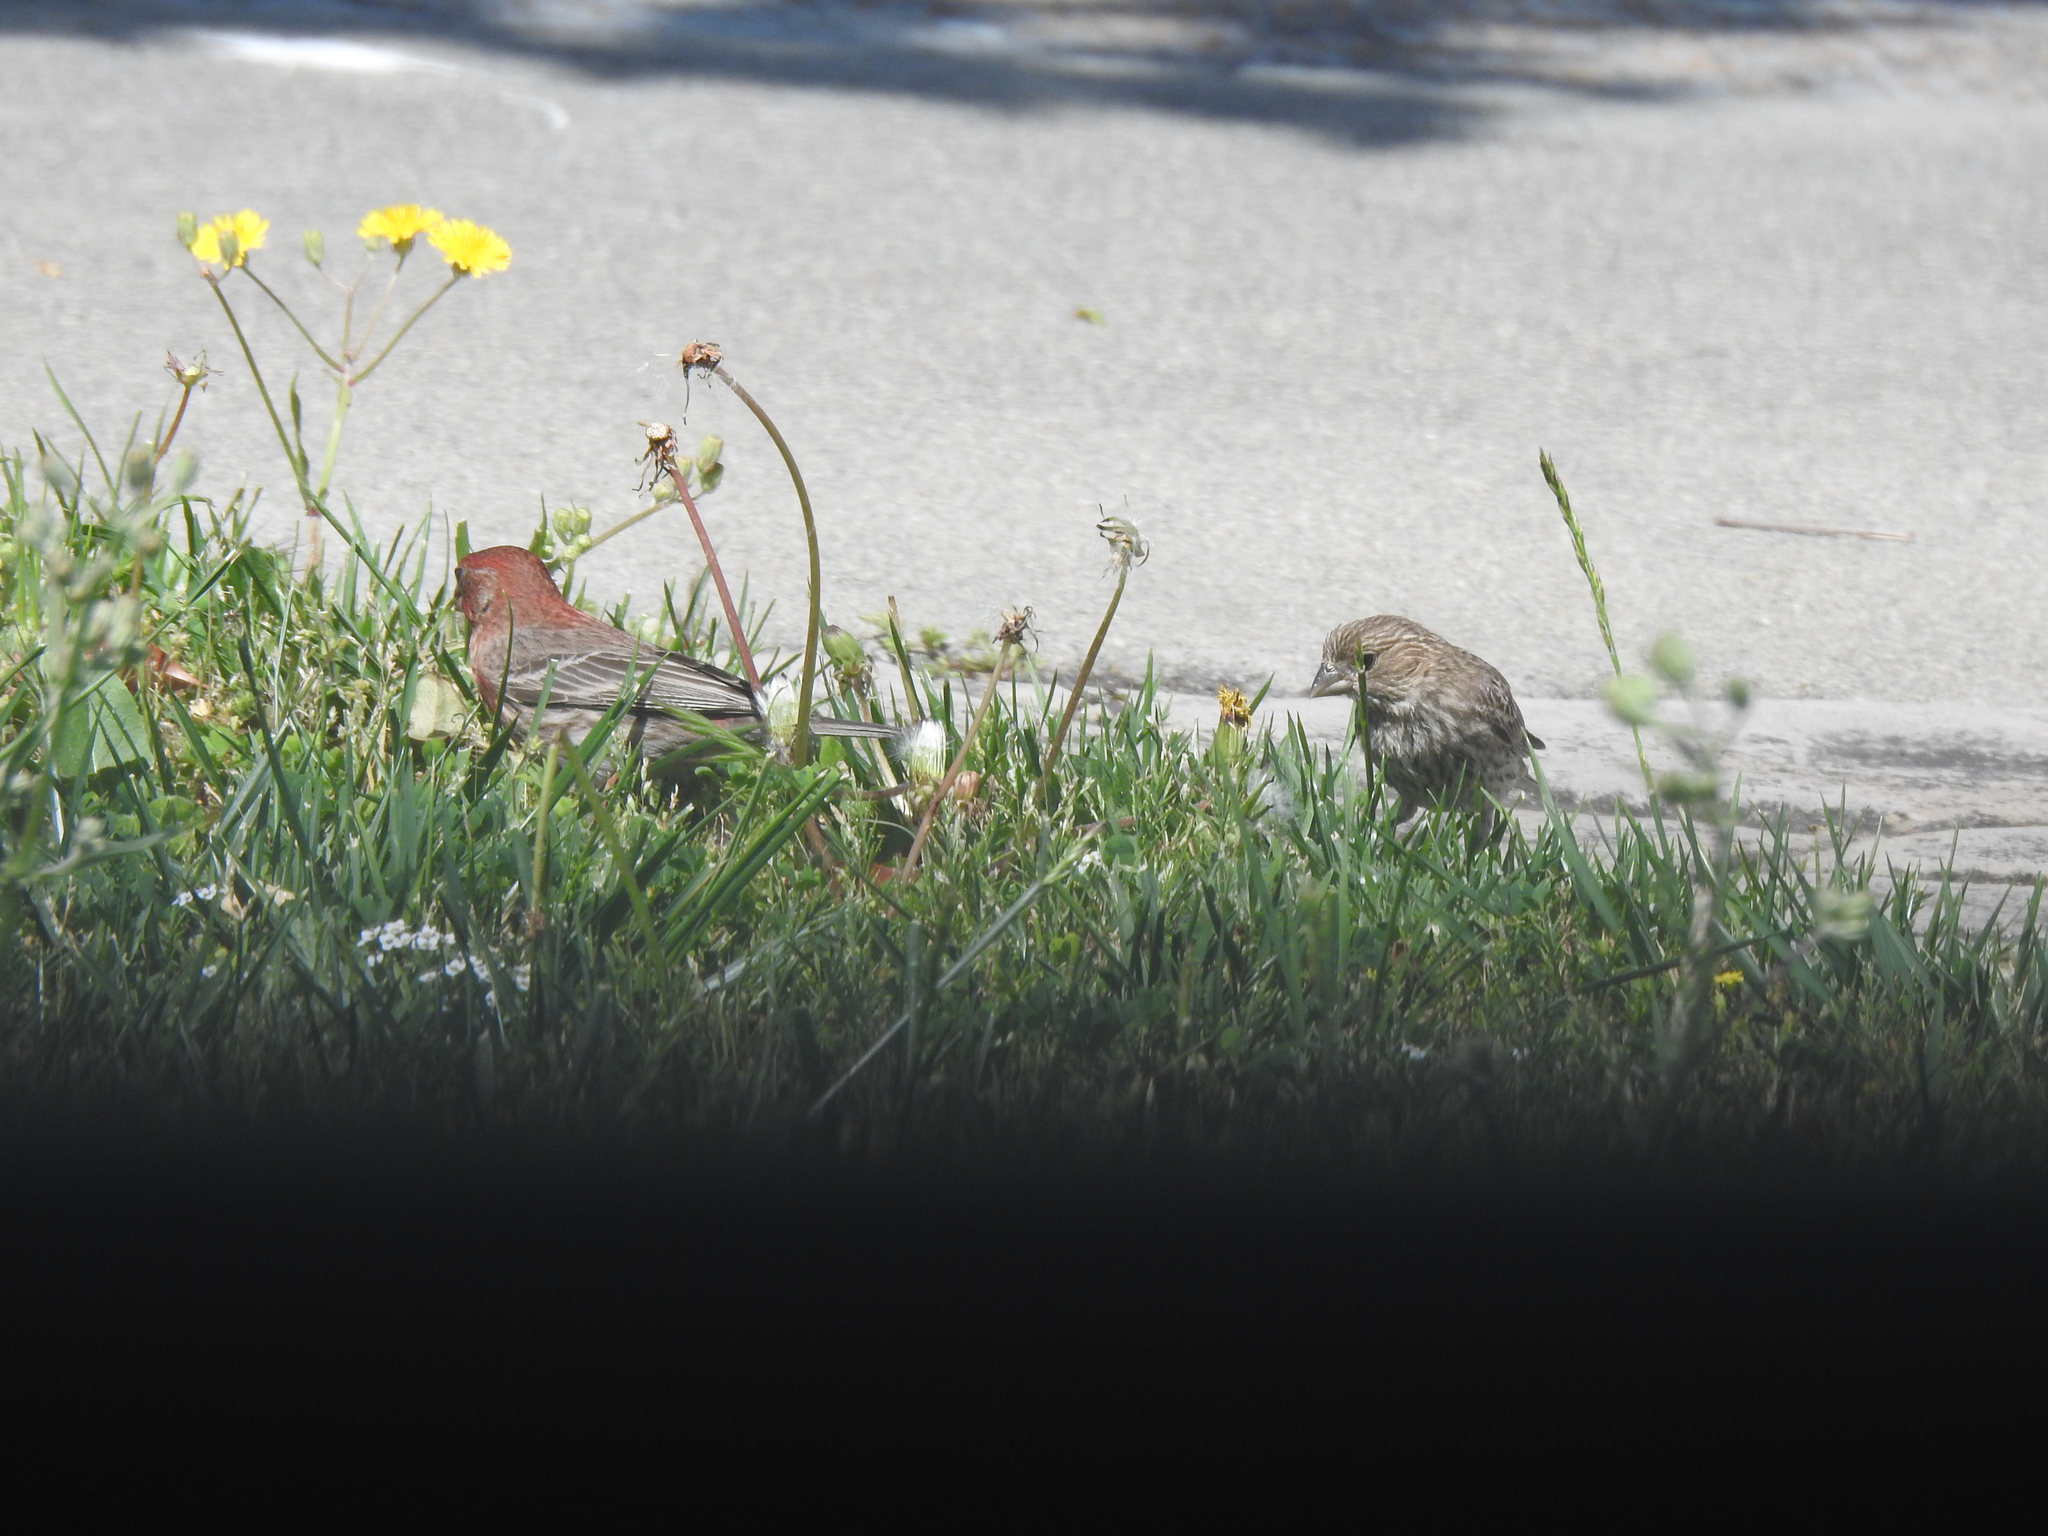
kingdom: Animalia
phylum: Chordata
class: Aves
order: Passeriformes
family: Fringillidae
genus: Haemorhous
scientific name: Haemorhous mexicanus
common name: House finch
